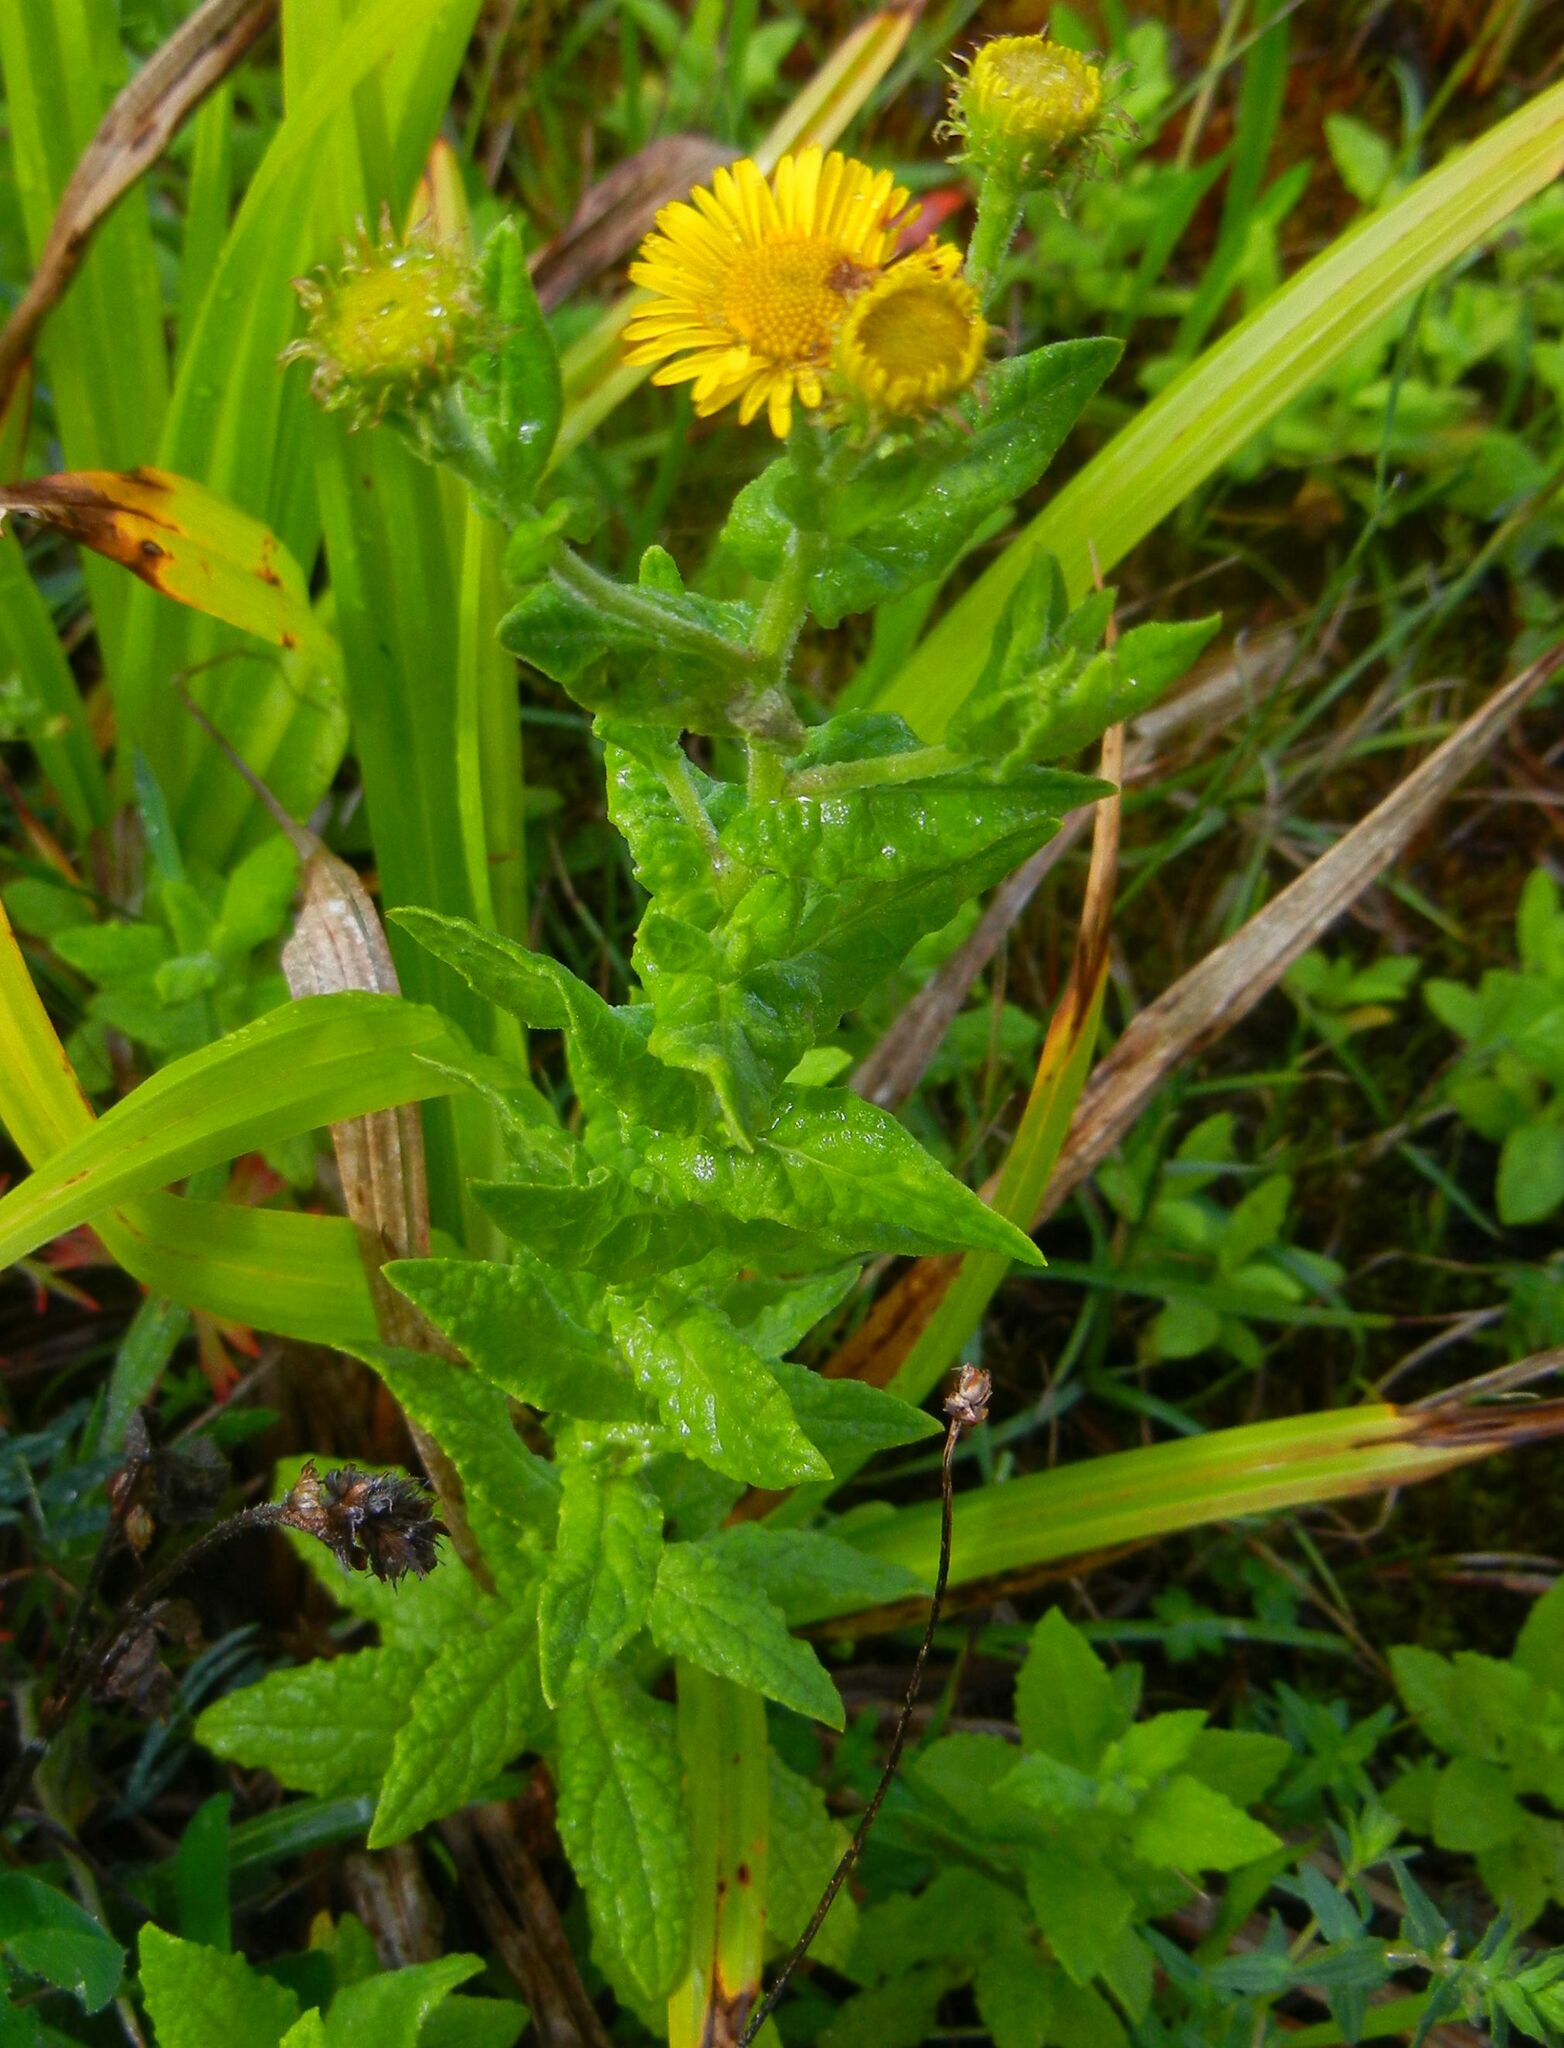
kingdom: Plantae
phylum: Tracheophyta
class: Magnoliopsida
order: Asterales
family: Asteraceae
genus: Pulicaria
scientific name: Pulicaria dysenterica
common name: Common fleabane
